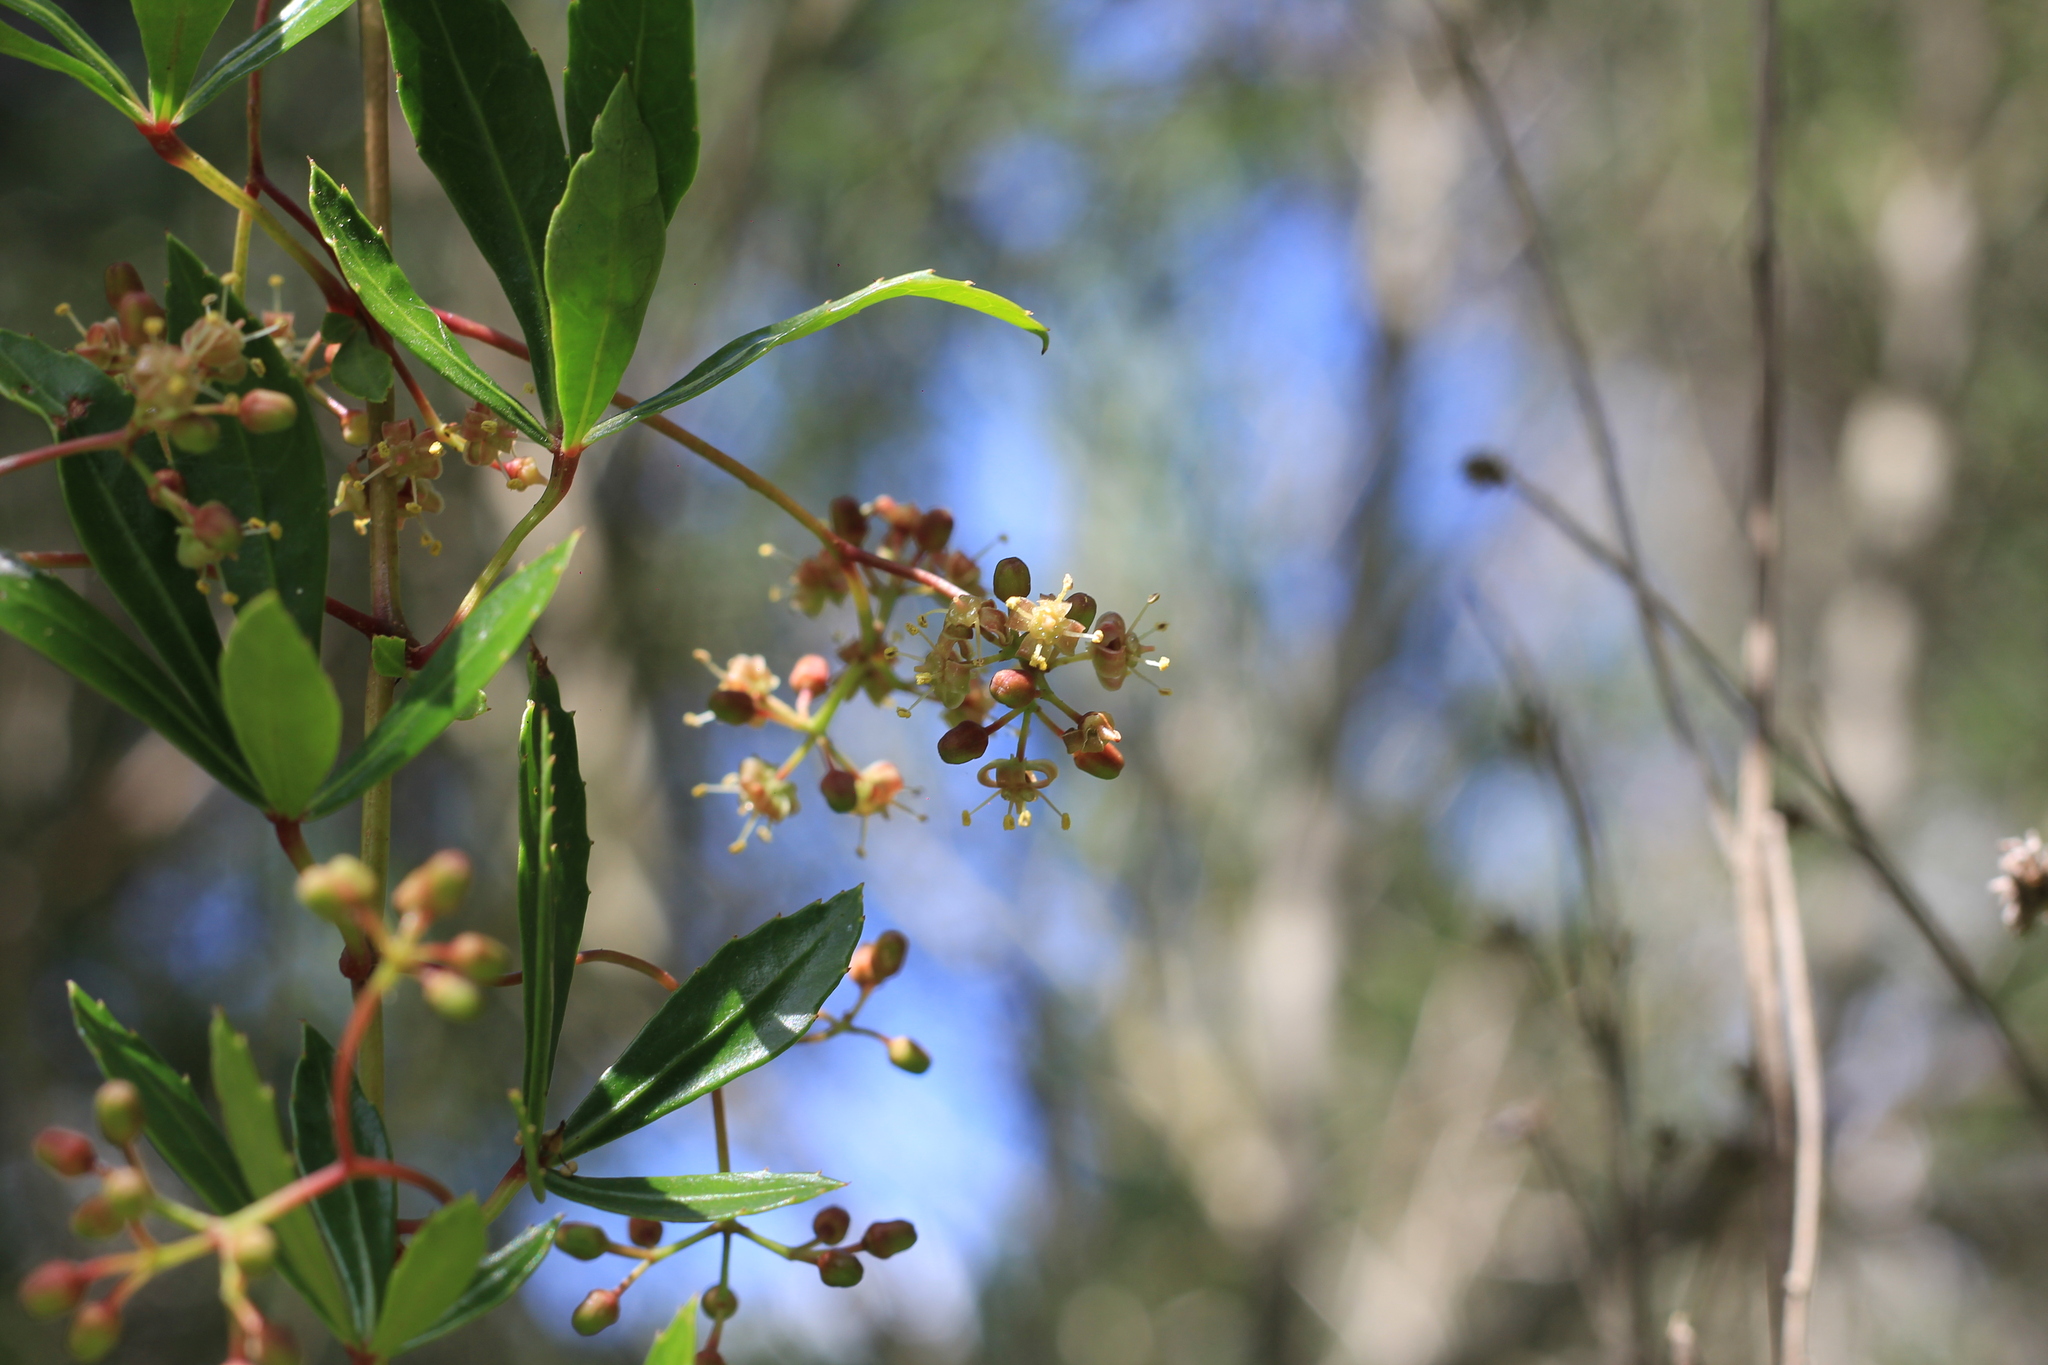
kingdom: Plantae
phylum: Tracheophyta
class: Magnoliopsida
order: Vitales
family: Vitaceae
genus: Cissus
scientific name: Cissus palmata
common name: Grape
